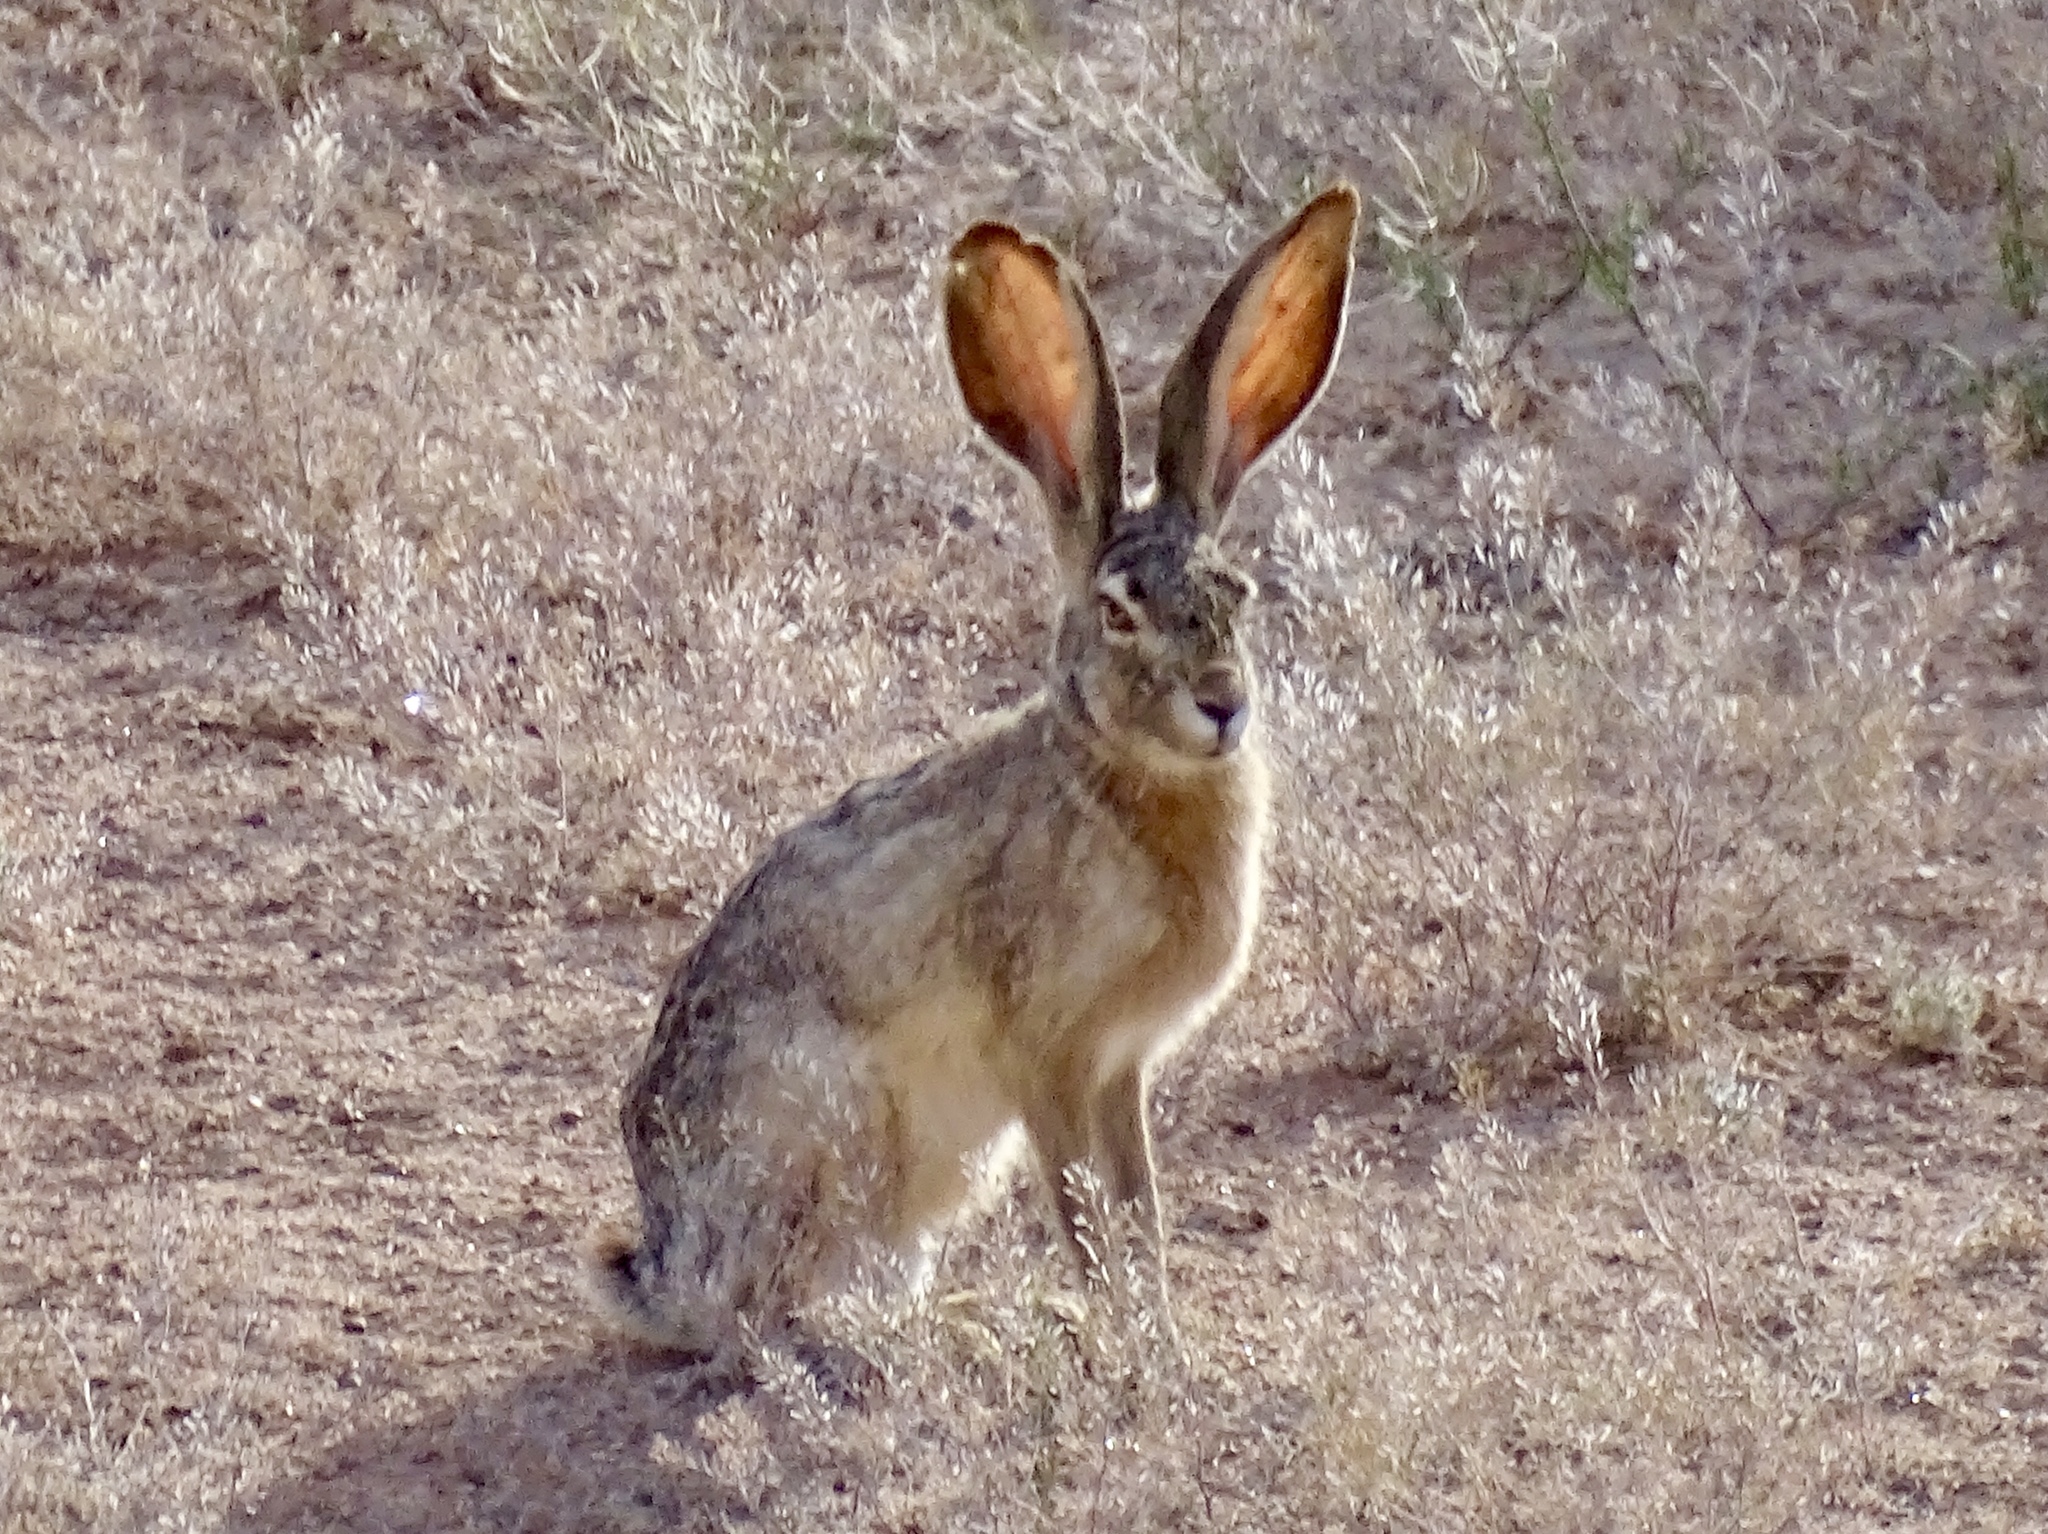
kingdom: Animalia
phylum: Chordata
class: Mammalia
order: Lagomorpha
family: Leporidae
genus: Lepus
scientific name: Lepus californicus
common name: Black-tailed jackrabbit
